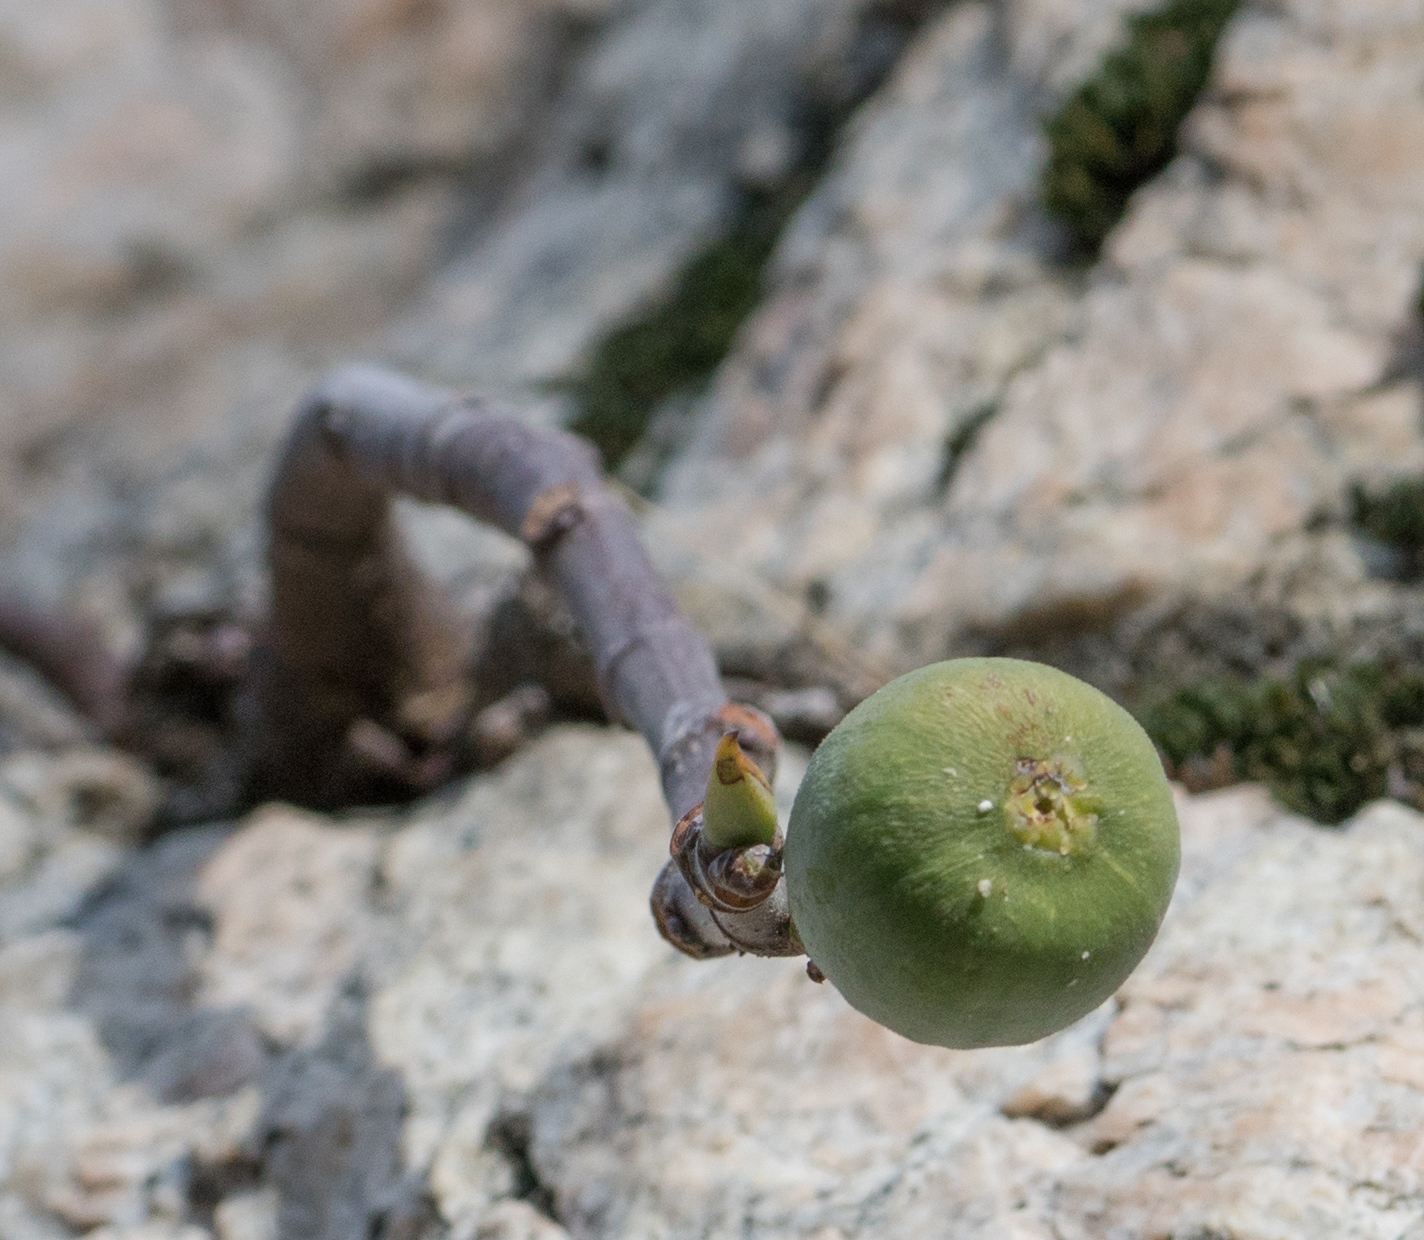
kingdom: Plantae
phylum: Tracheophyta
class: Magnoliopsida
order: Rosales
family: Moraceae
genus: Ficus
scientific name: Ficus carica
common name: Fig
